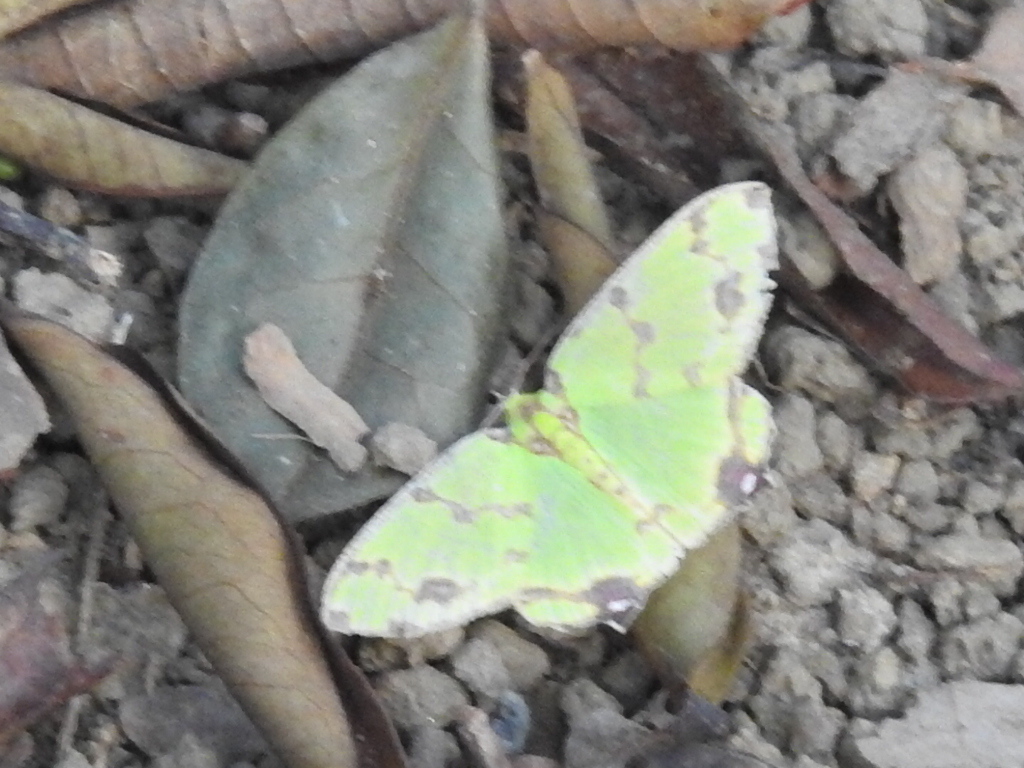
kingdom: Animalia
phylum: Arthropoda
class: Insecta
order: Lepidoptera
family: Geometridae
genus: Agathia
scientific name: Agathia lycaenaria
